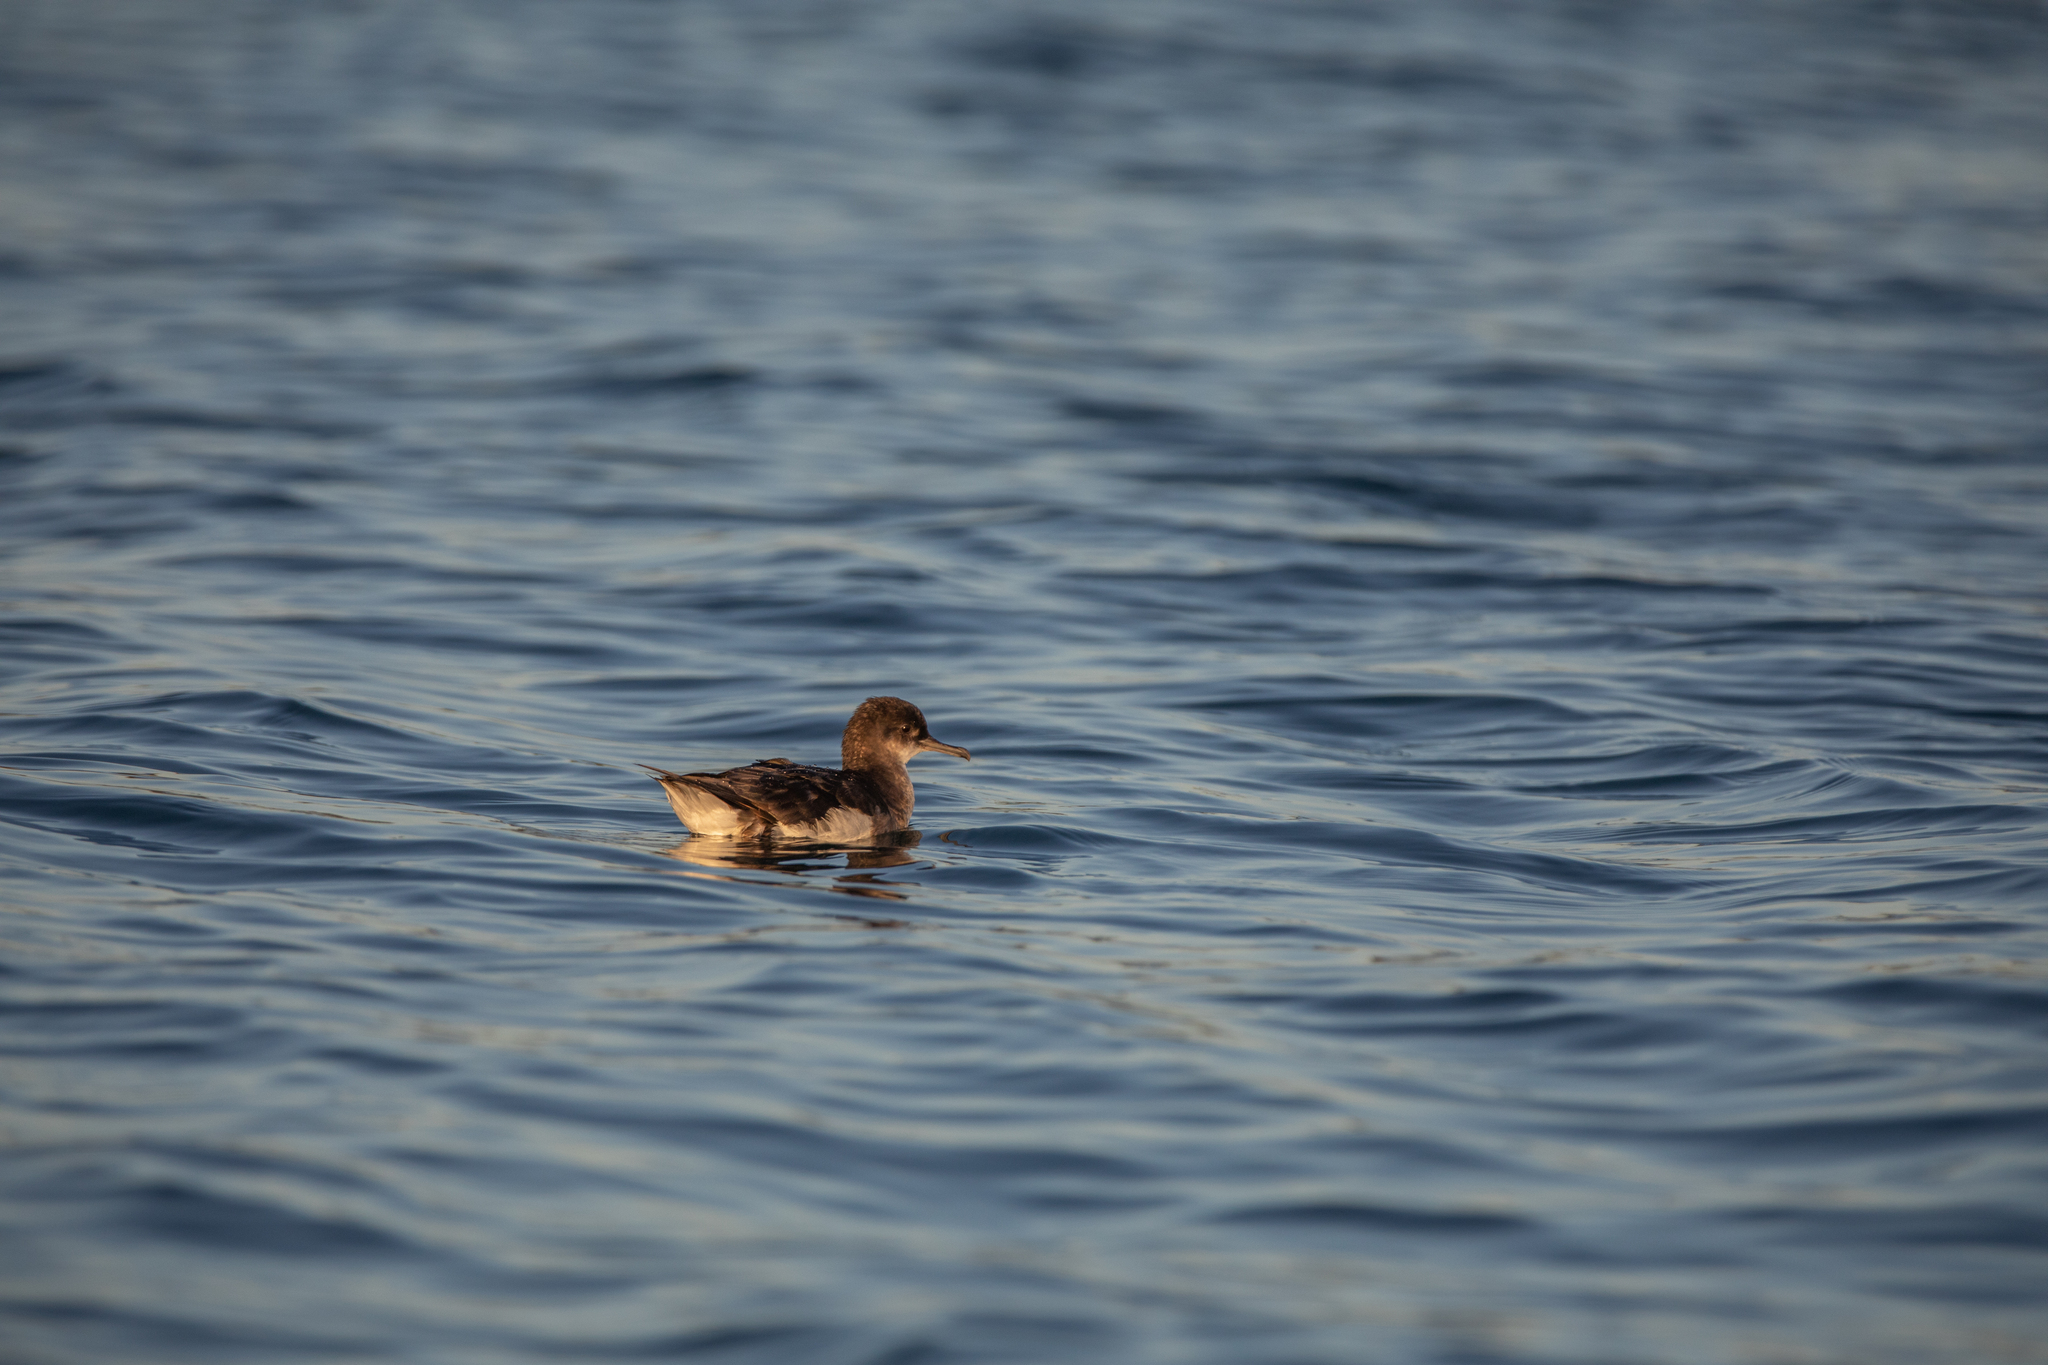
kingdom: Animalia
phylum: Chordata
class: Aves
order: Procellariiformes
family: Procellariidae
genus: Puffinus
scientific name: Puffinus gavia
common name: Fluttering shearwater
